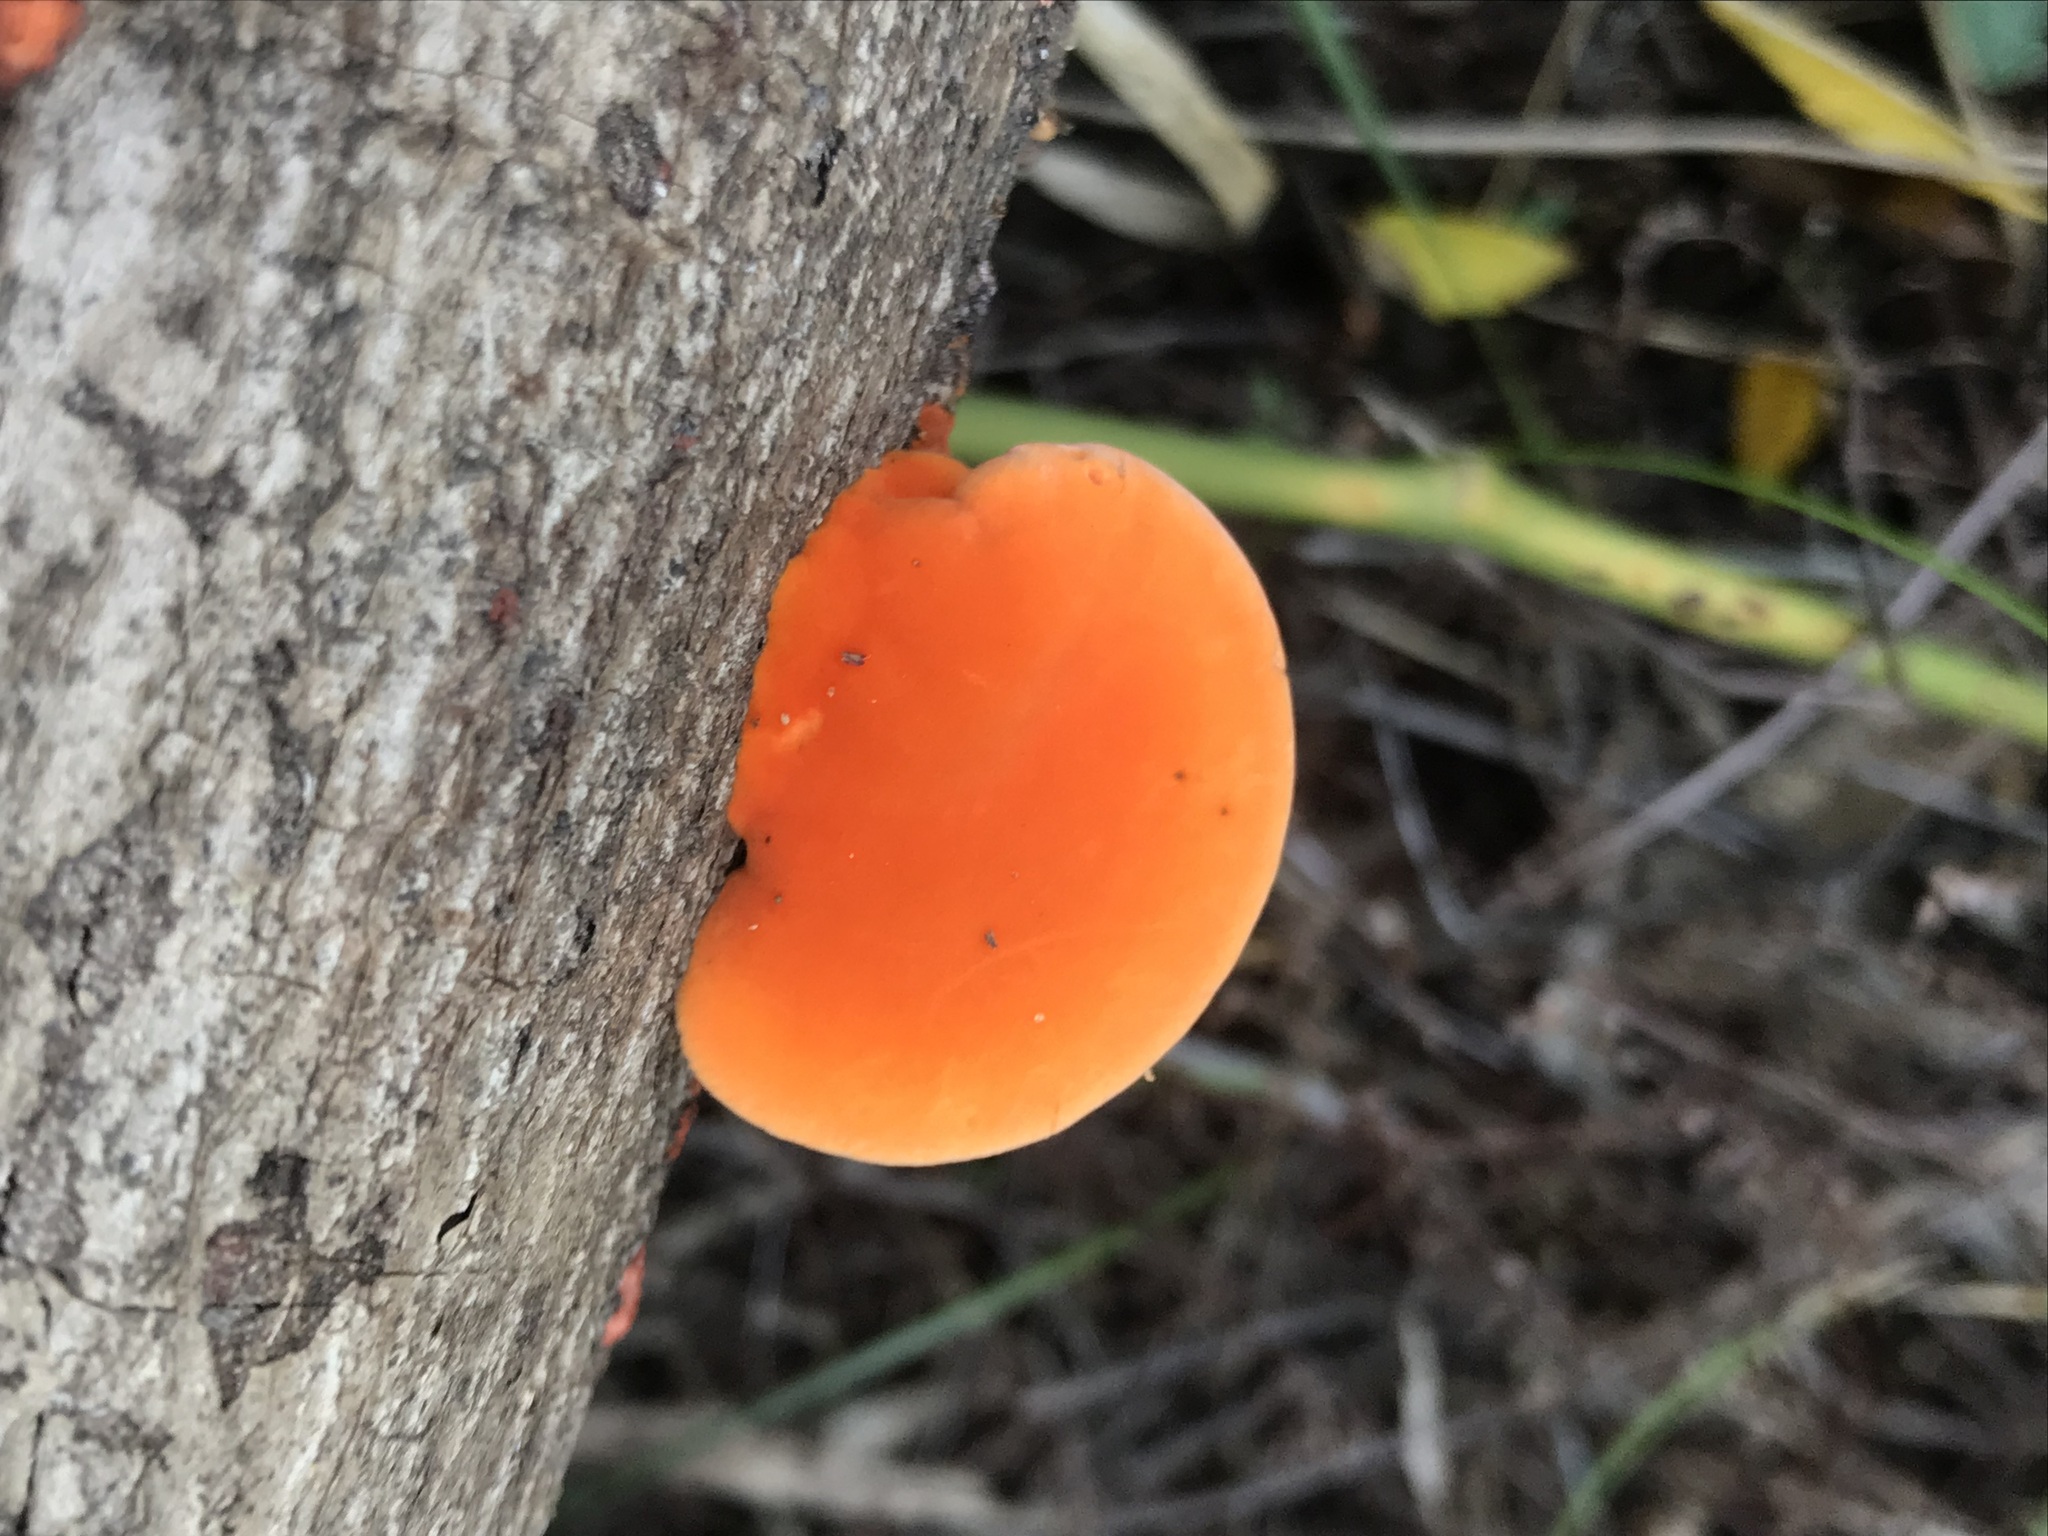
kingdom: Fungi
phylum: Basidiomycota
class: Agaricomycetes
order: Polyporales
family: Polyporaceae
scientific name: Polyporaceae
